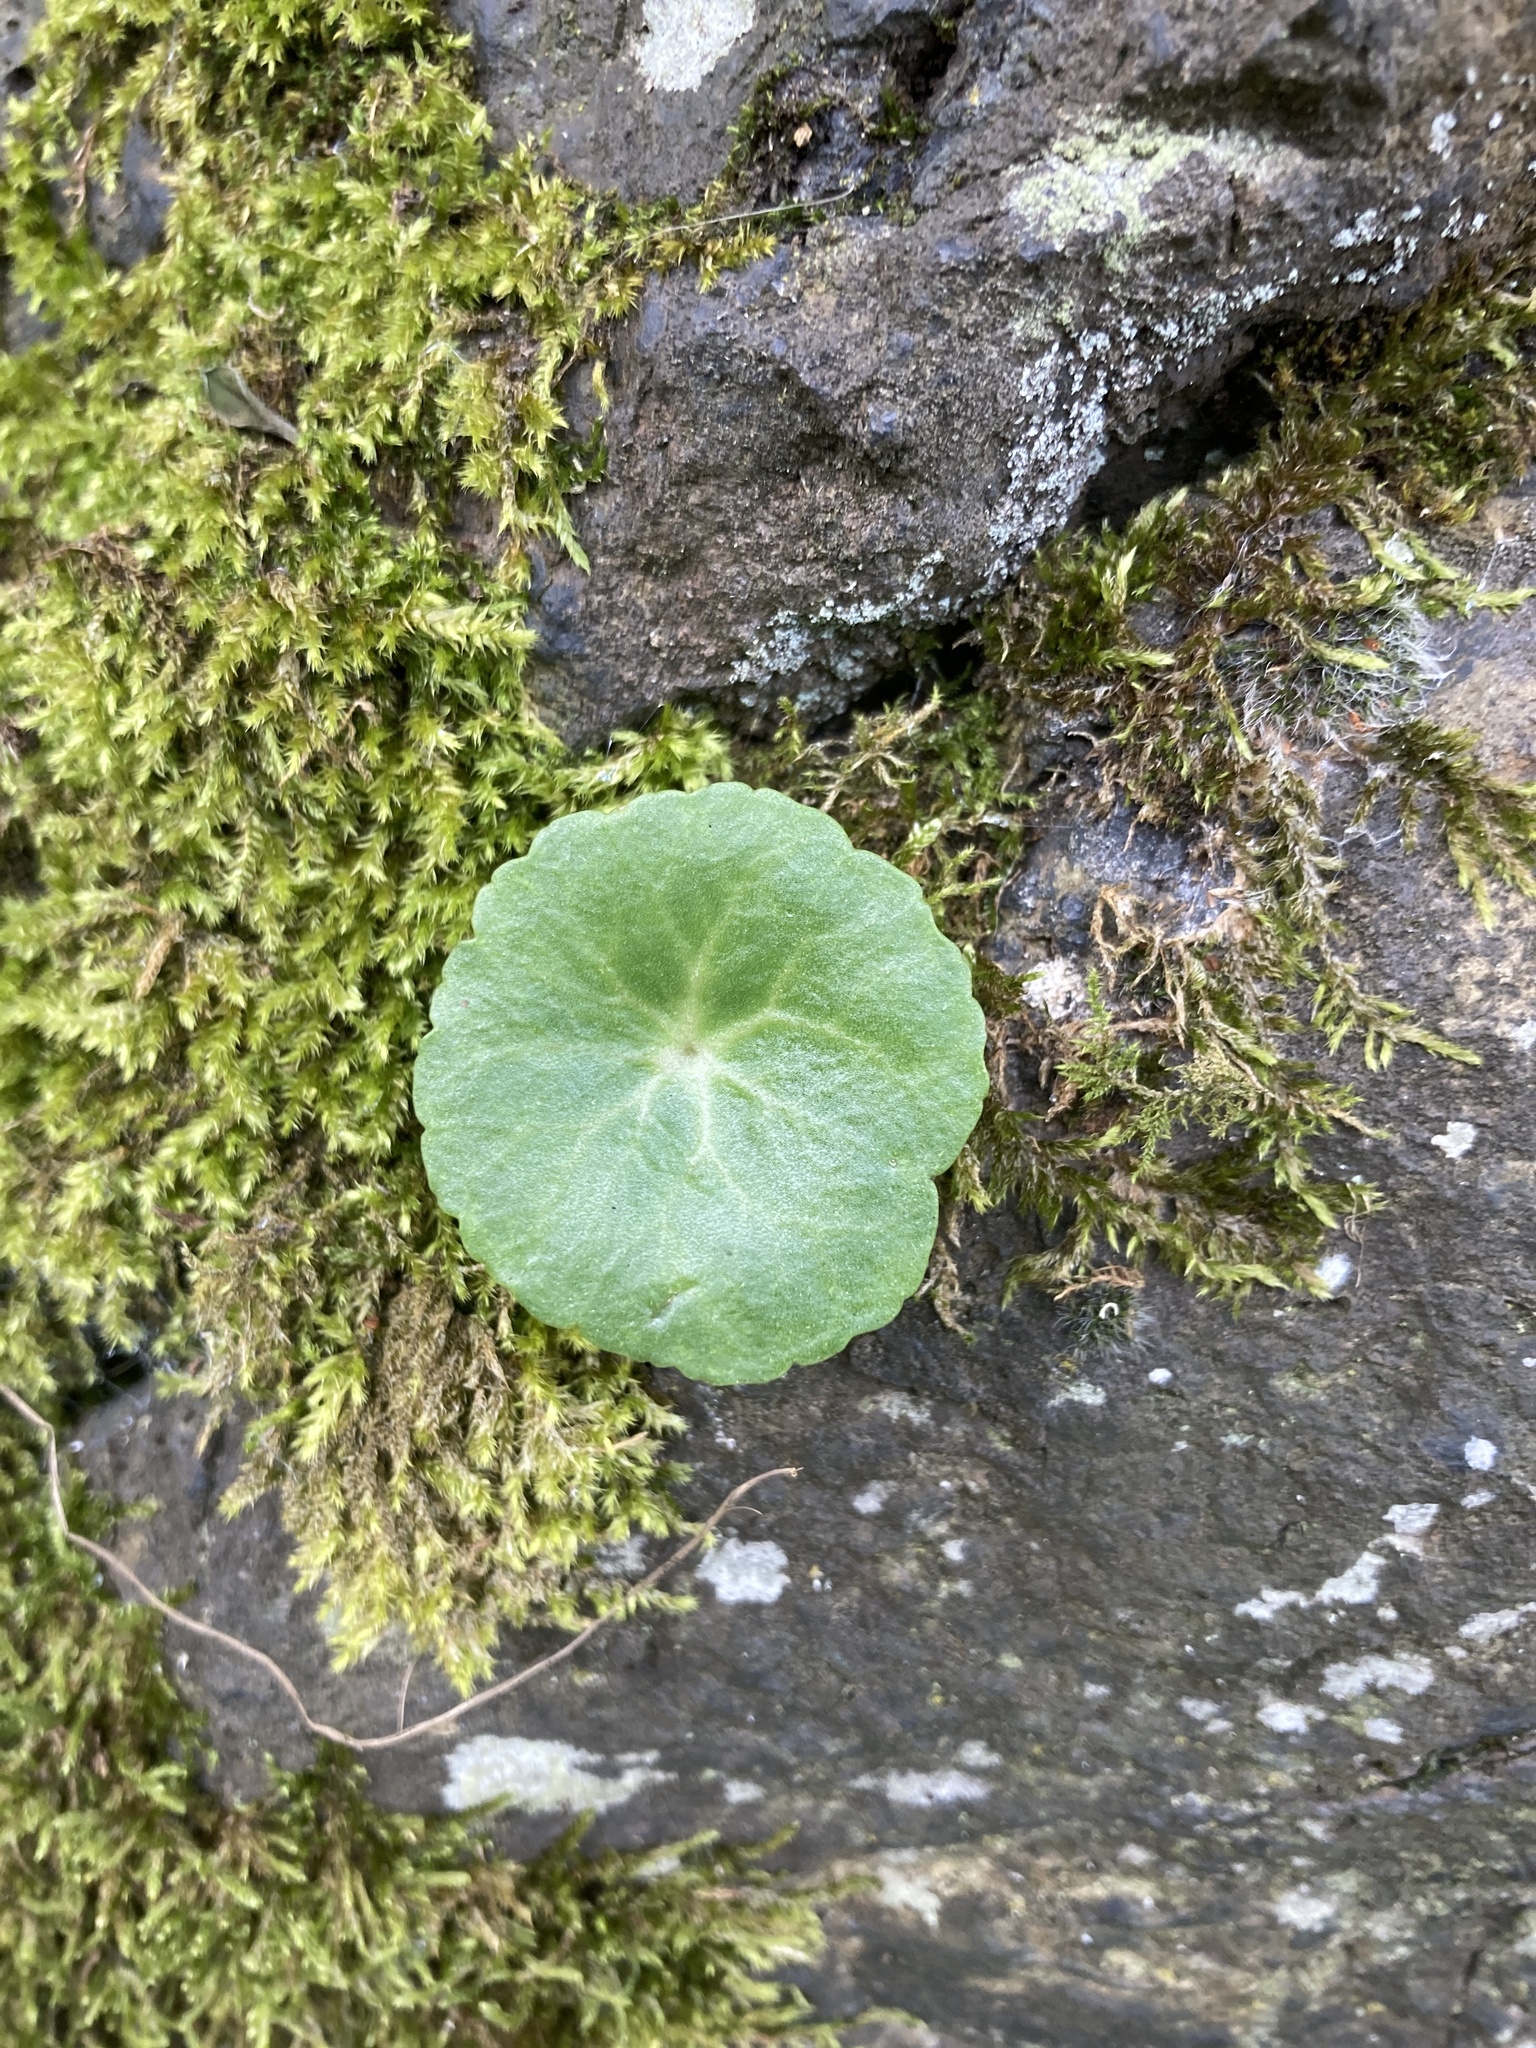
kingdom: Plantae
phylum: Tracheophyta
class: Magnoliopsida
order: Saxifragales
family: Crassulaceae
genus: Umbilicus
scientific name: Umbilicus rupestris
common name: Navelwort
